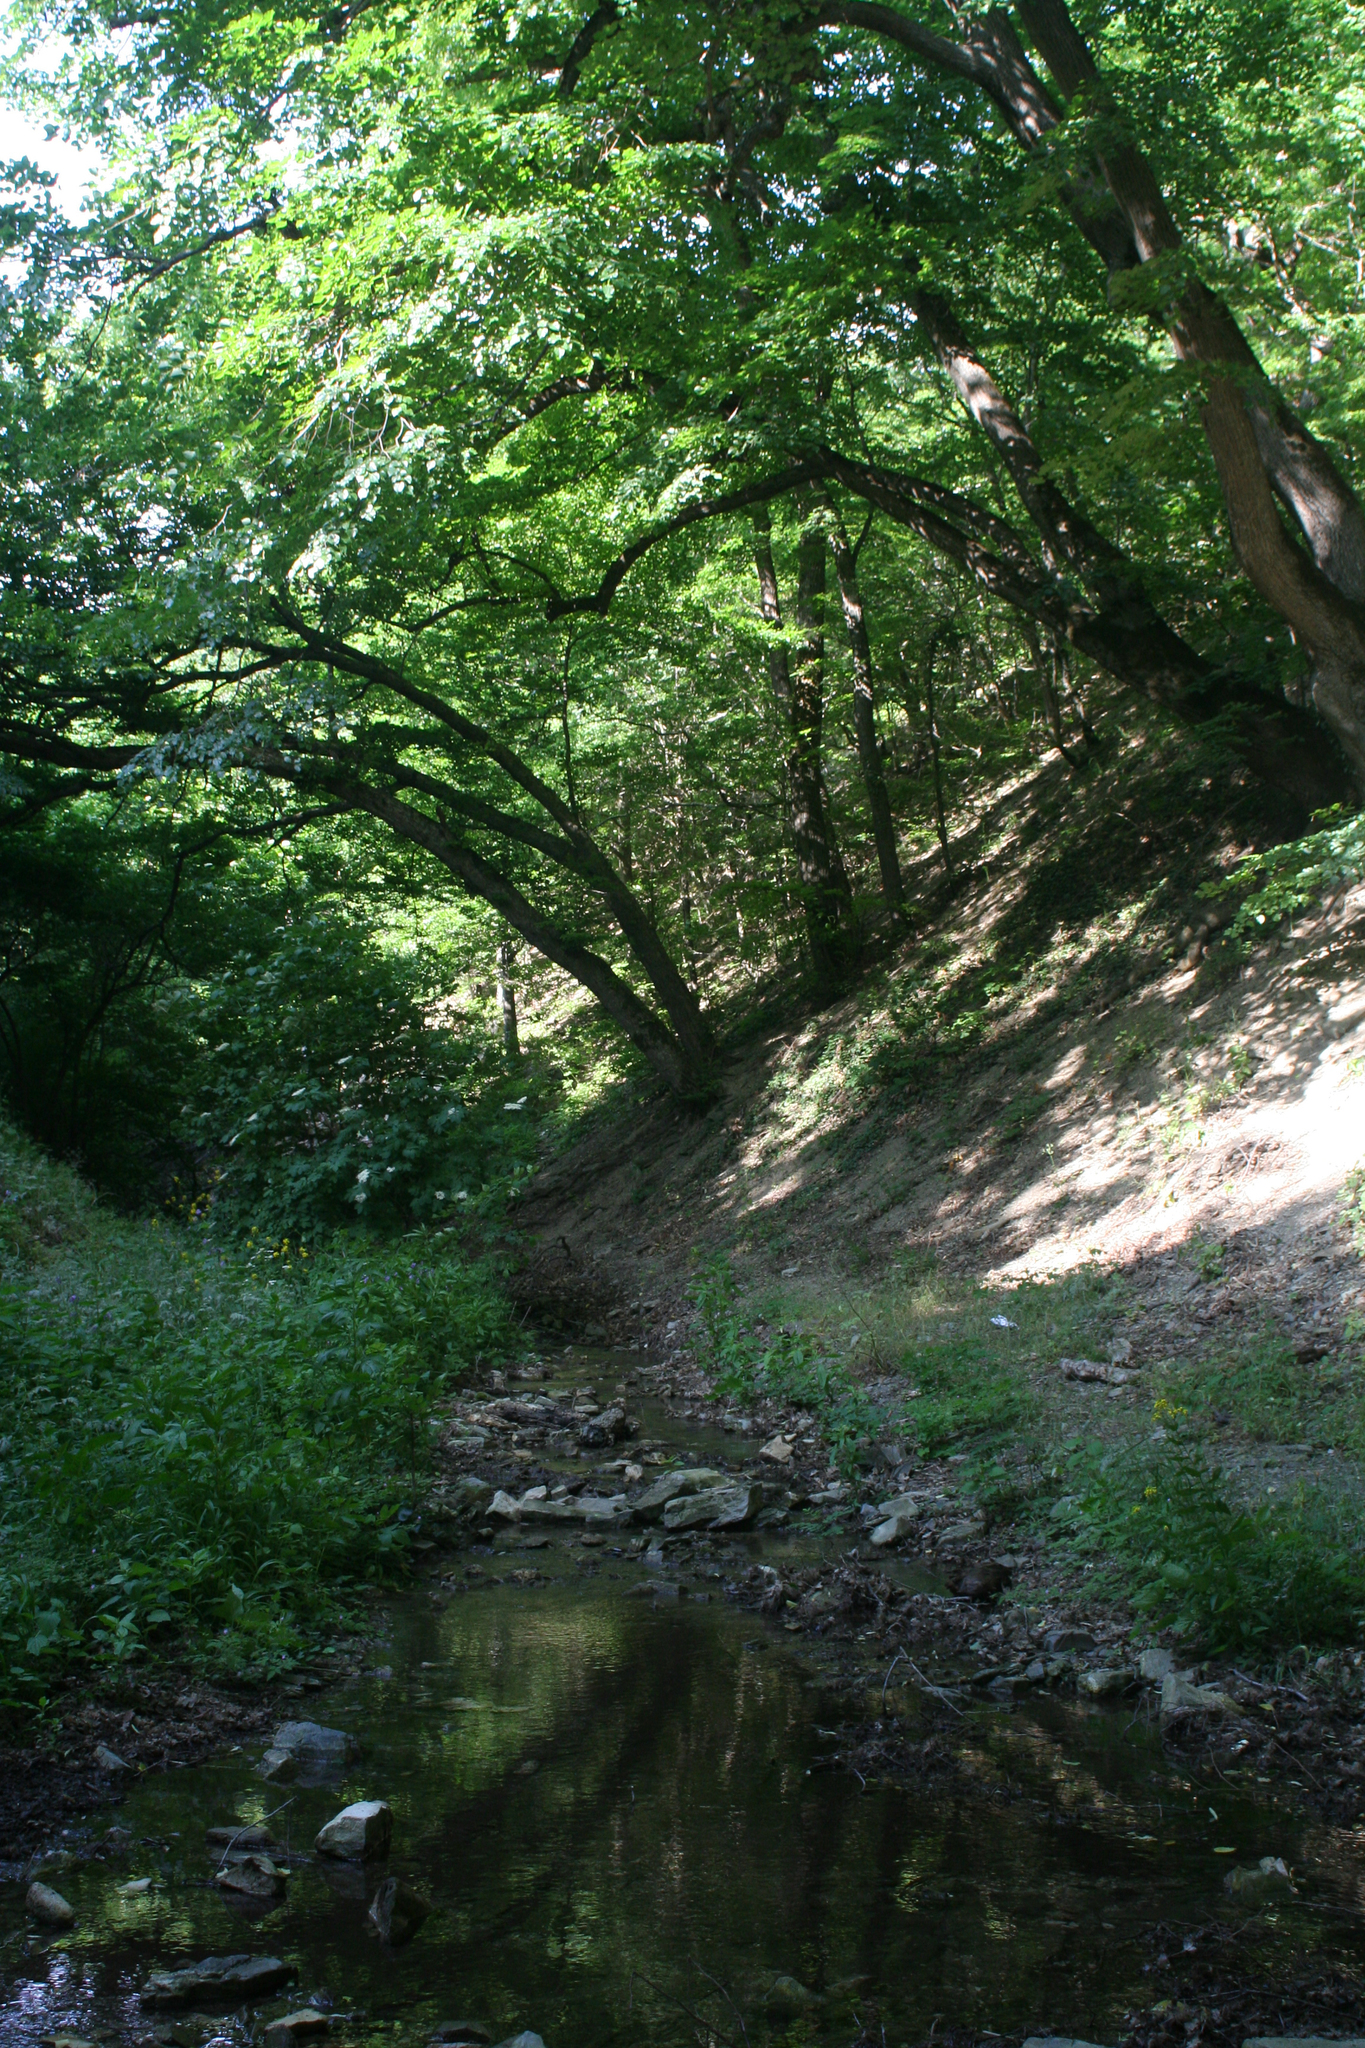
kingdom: Plantae
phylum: Tracheophyta
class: Magnoliopsida
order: Malvales
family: Malvaceae
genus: Tilia
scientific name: Tilia
